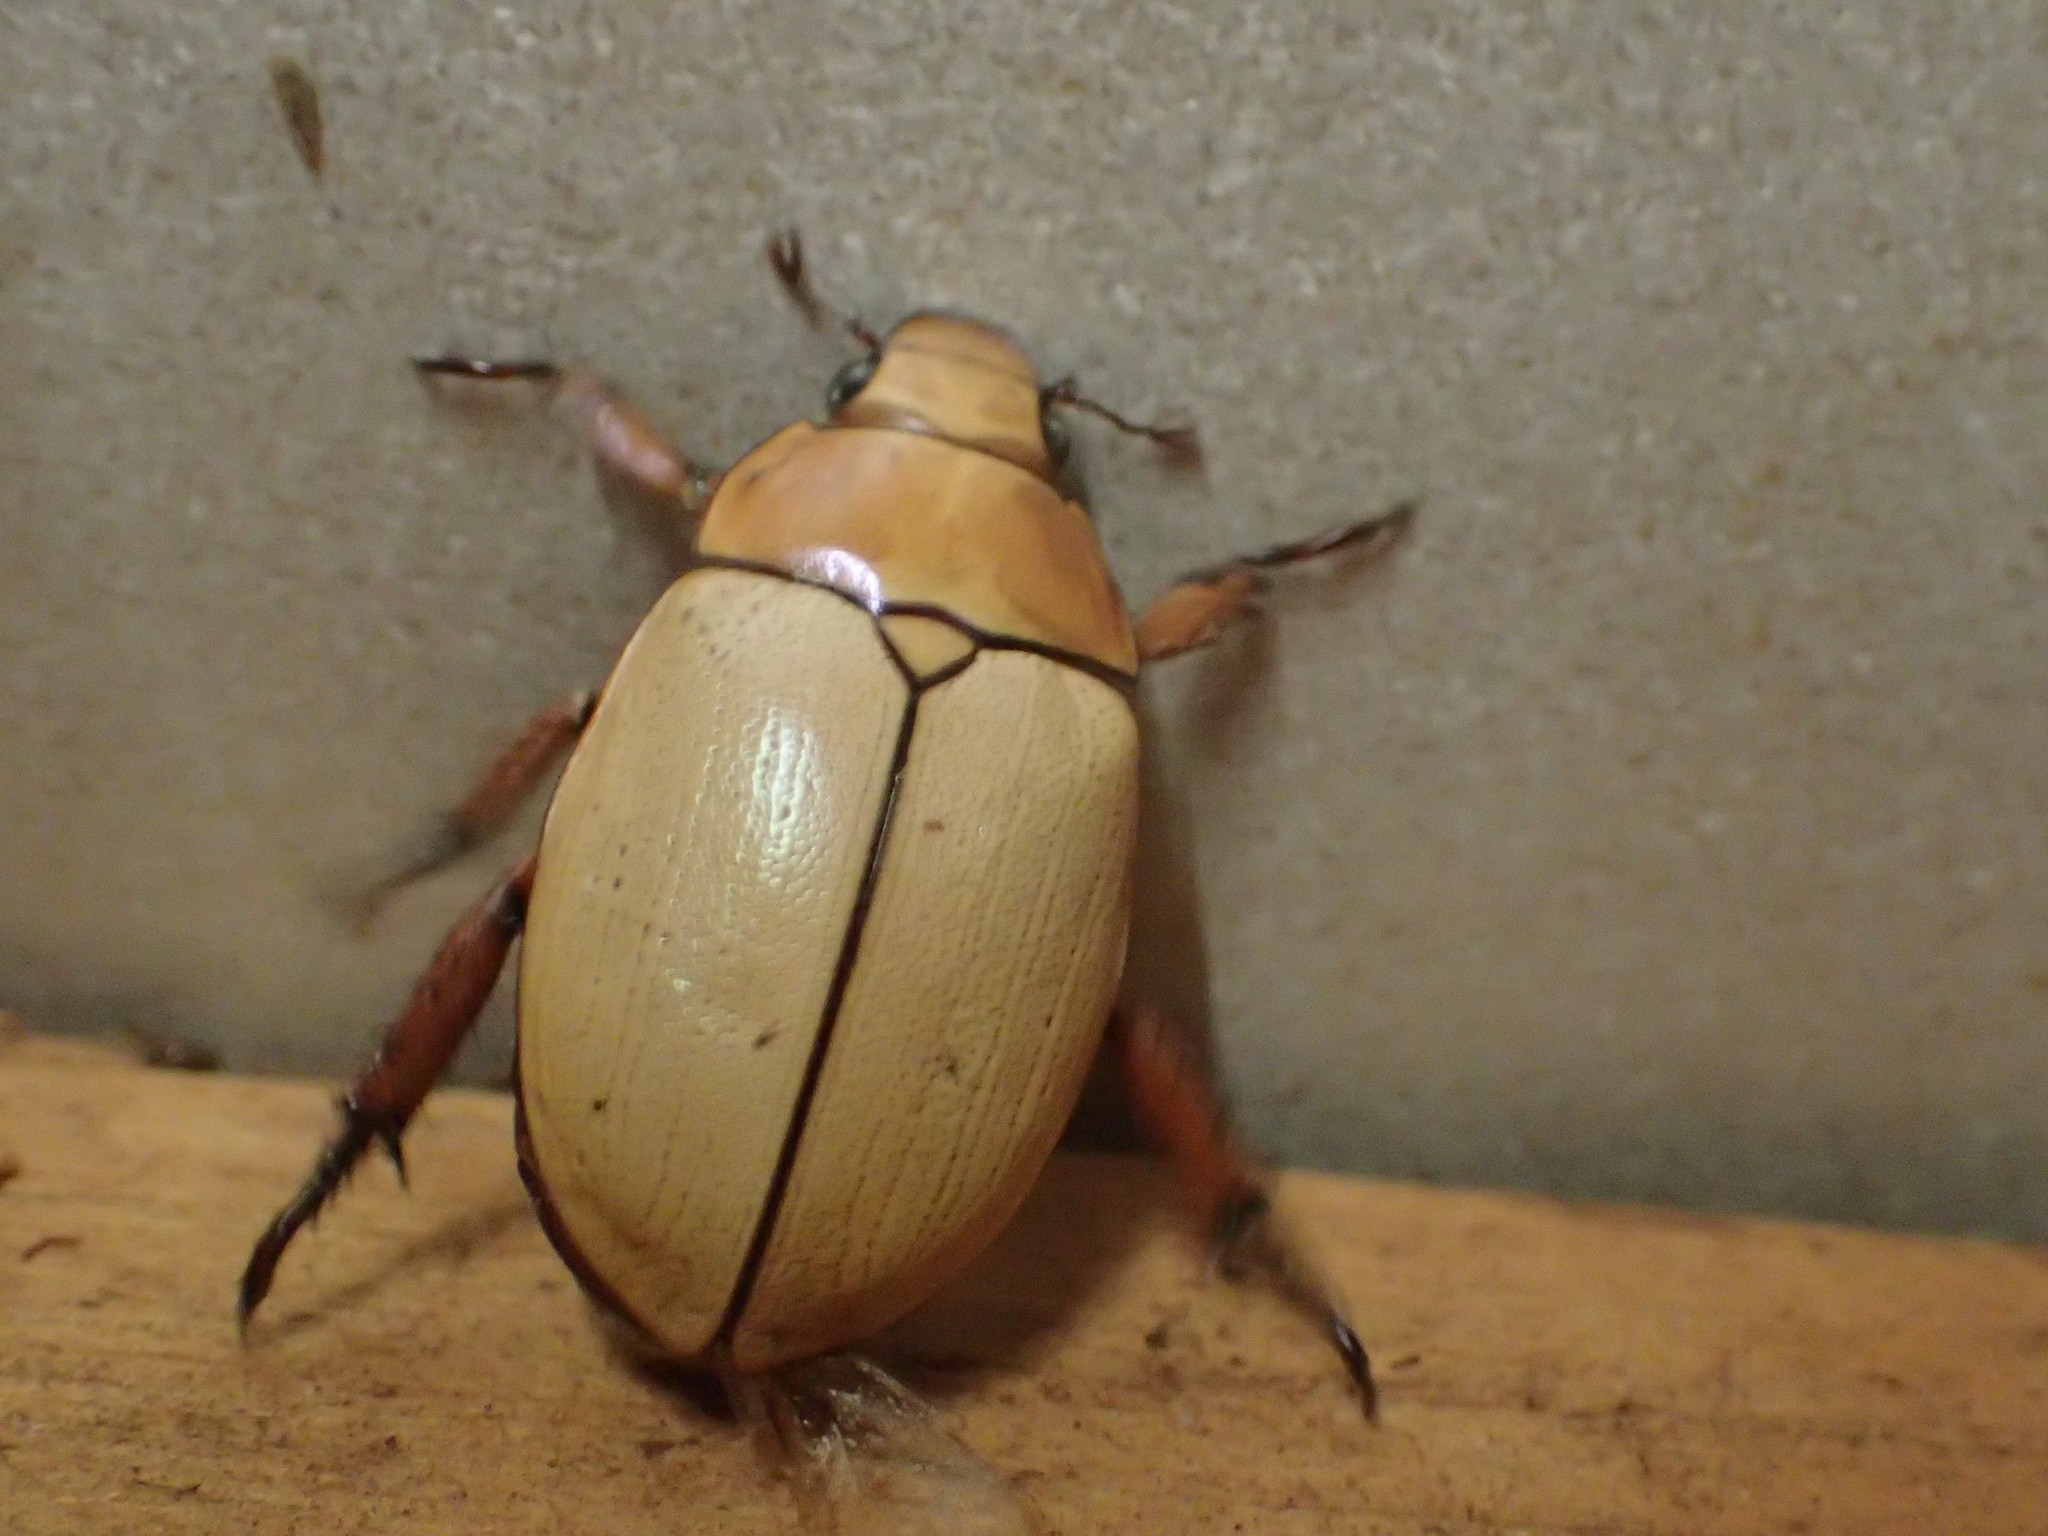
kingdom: Animalia
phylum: Arthropoda
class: Insecta
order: Coleoptera
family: Scarabaeidae
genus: Anoplognathus
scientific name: Anoplognathus macleayi
